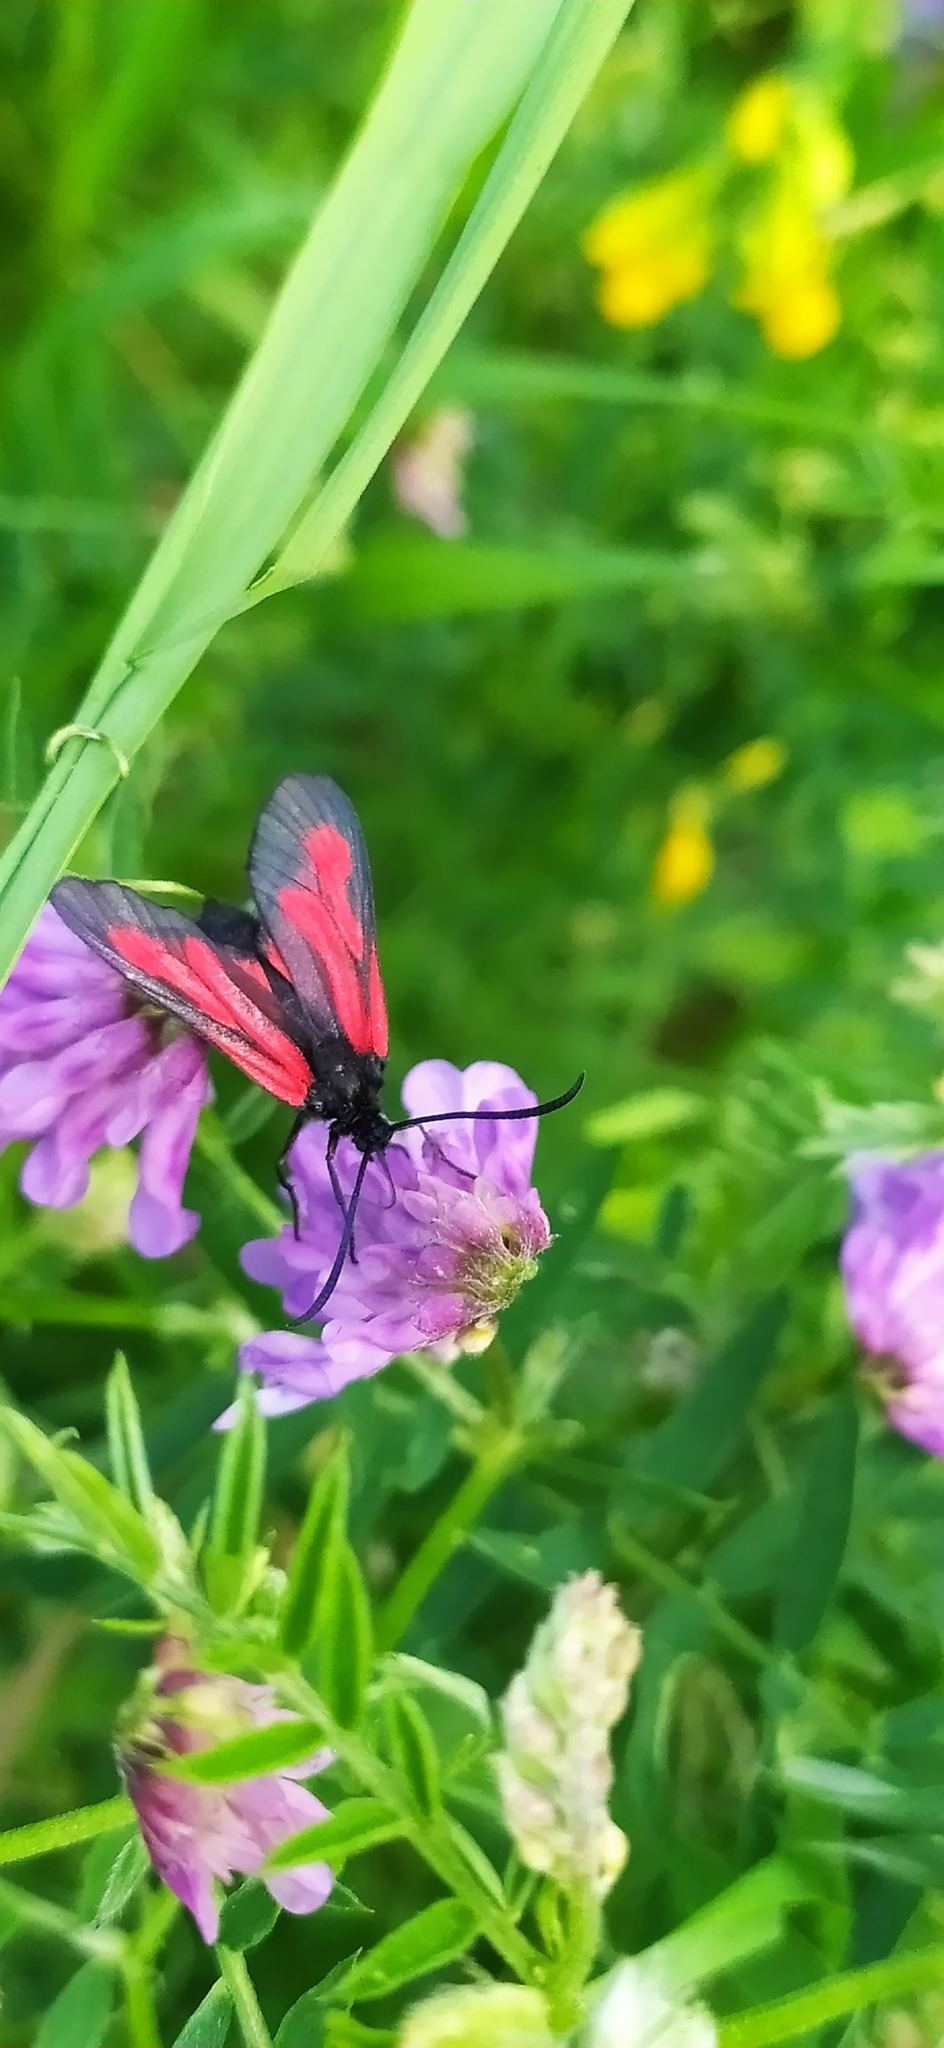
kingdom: Animalia
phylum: Arthropoda
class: Insecta
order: Lepidoptera
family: Zygaenidae
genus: Zygaena
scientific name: Zygaena osterodensis
